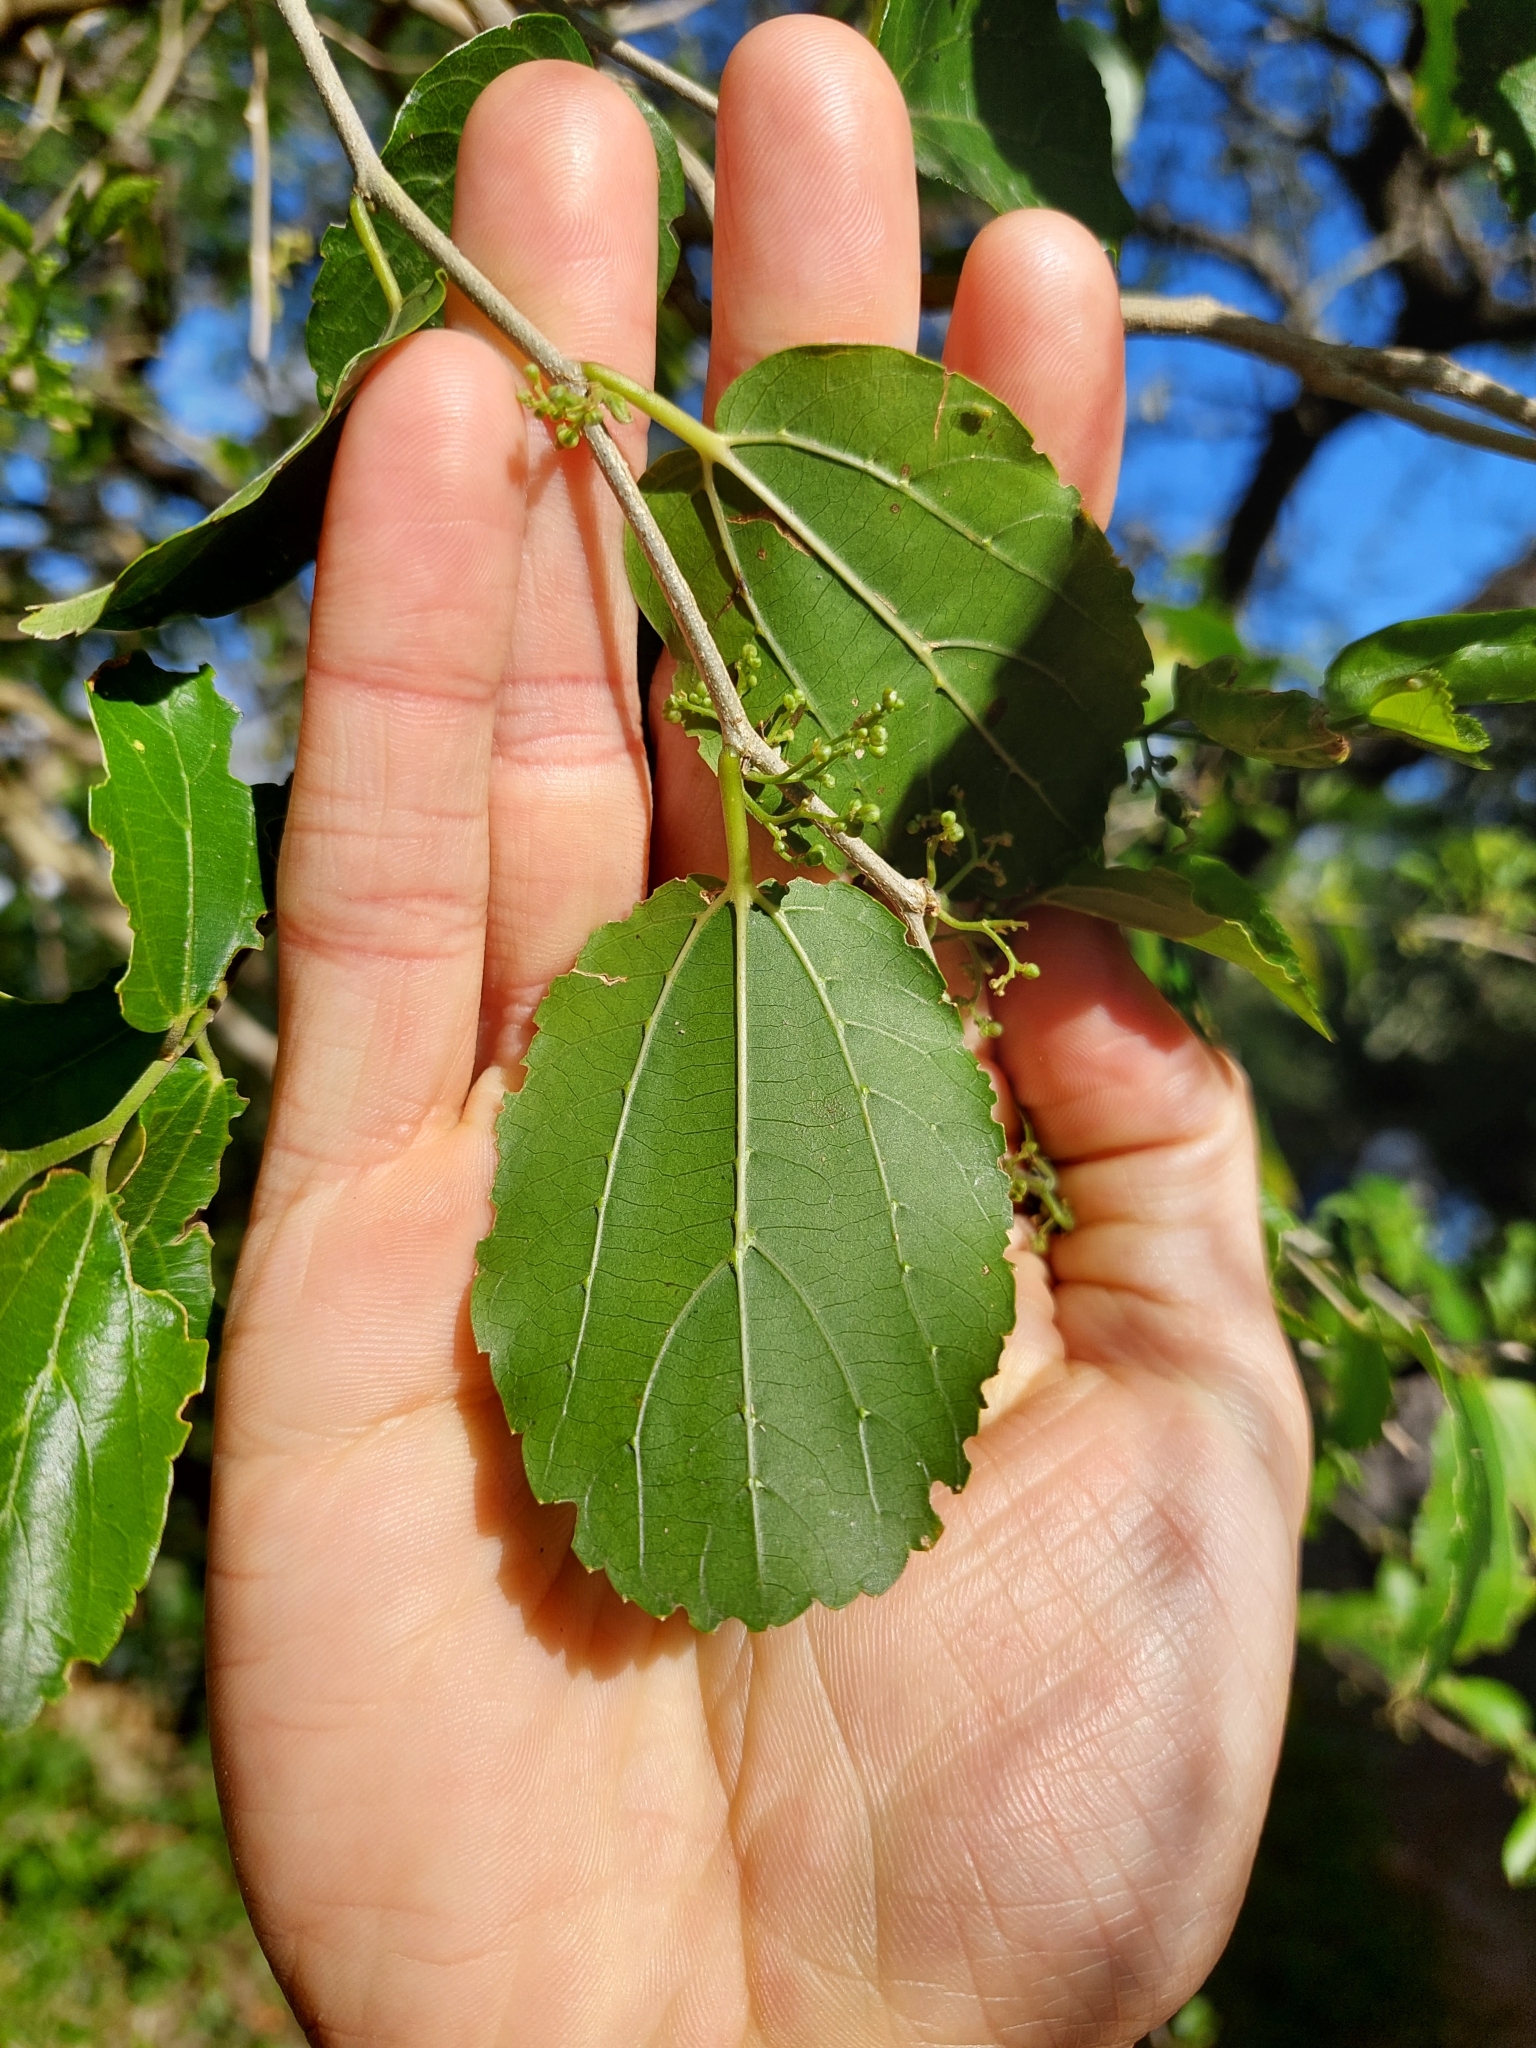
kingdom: Plantae
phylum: Tracheophyta
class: Magnoliopsida
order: Rosales
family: Cannabaceae
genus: Celtis
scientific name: Celtis chicape
